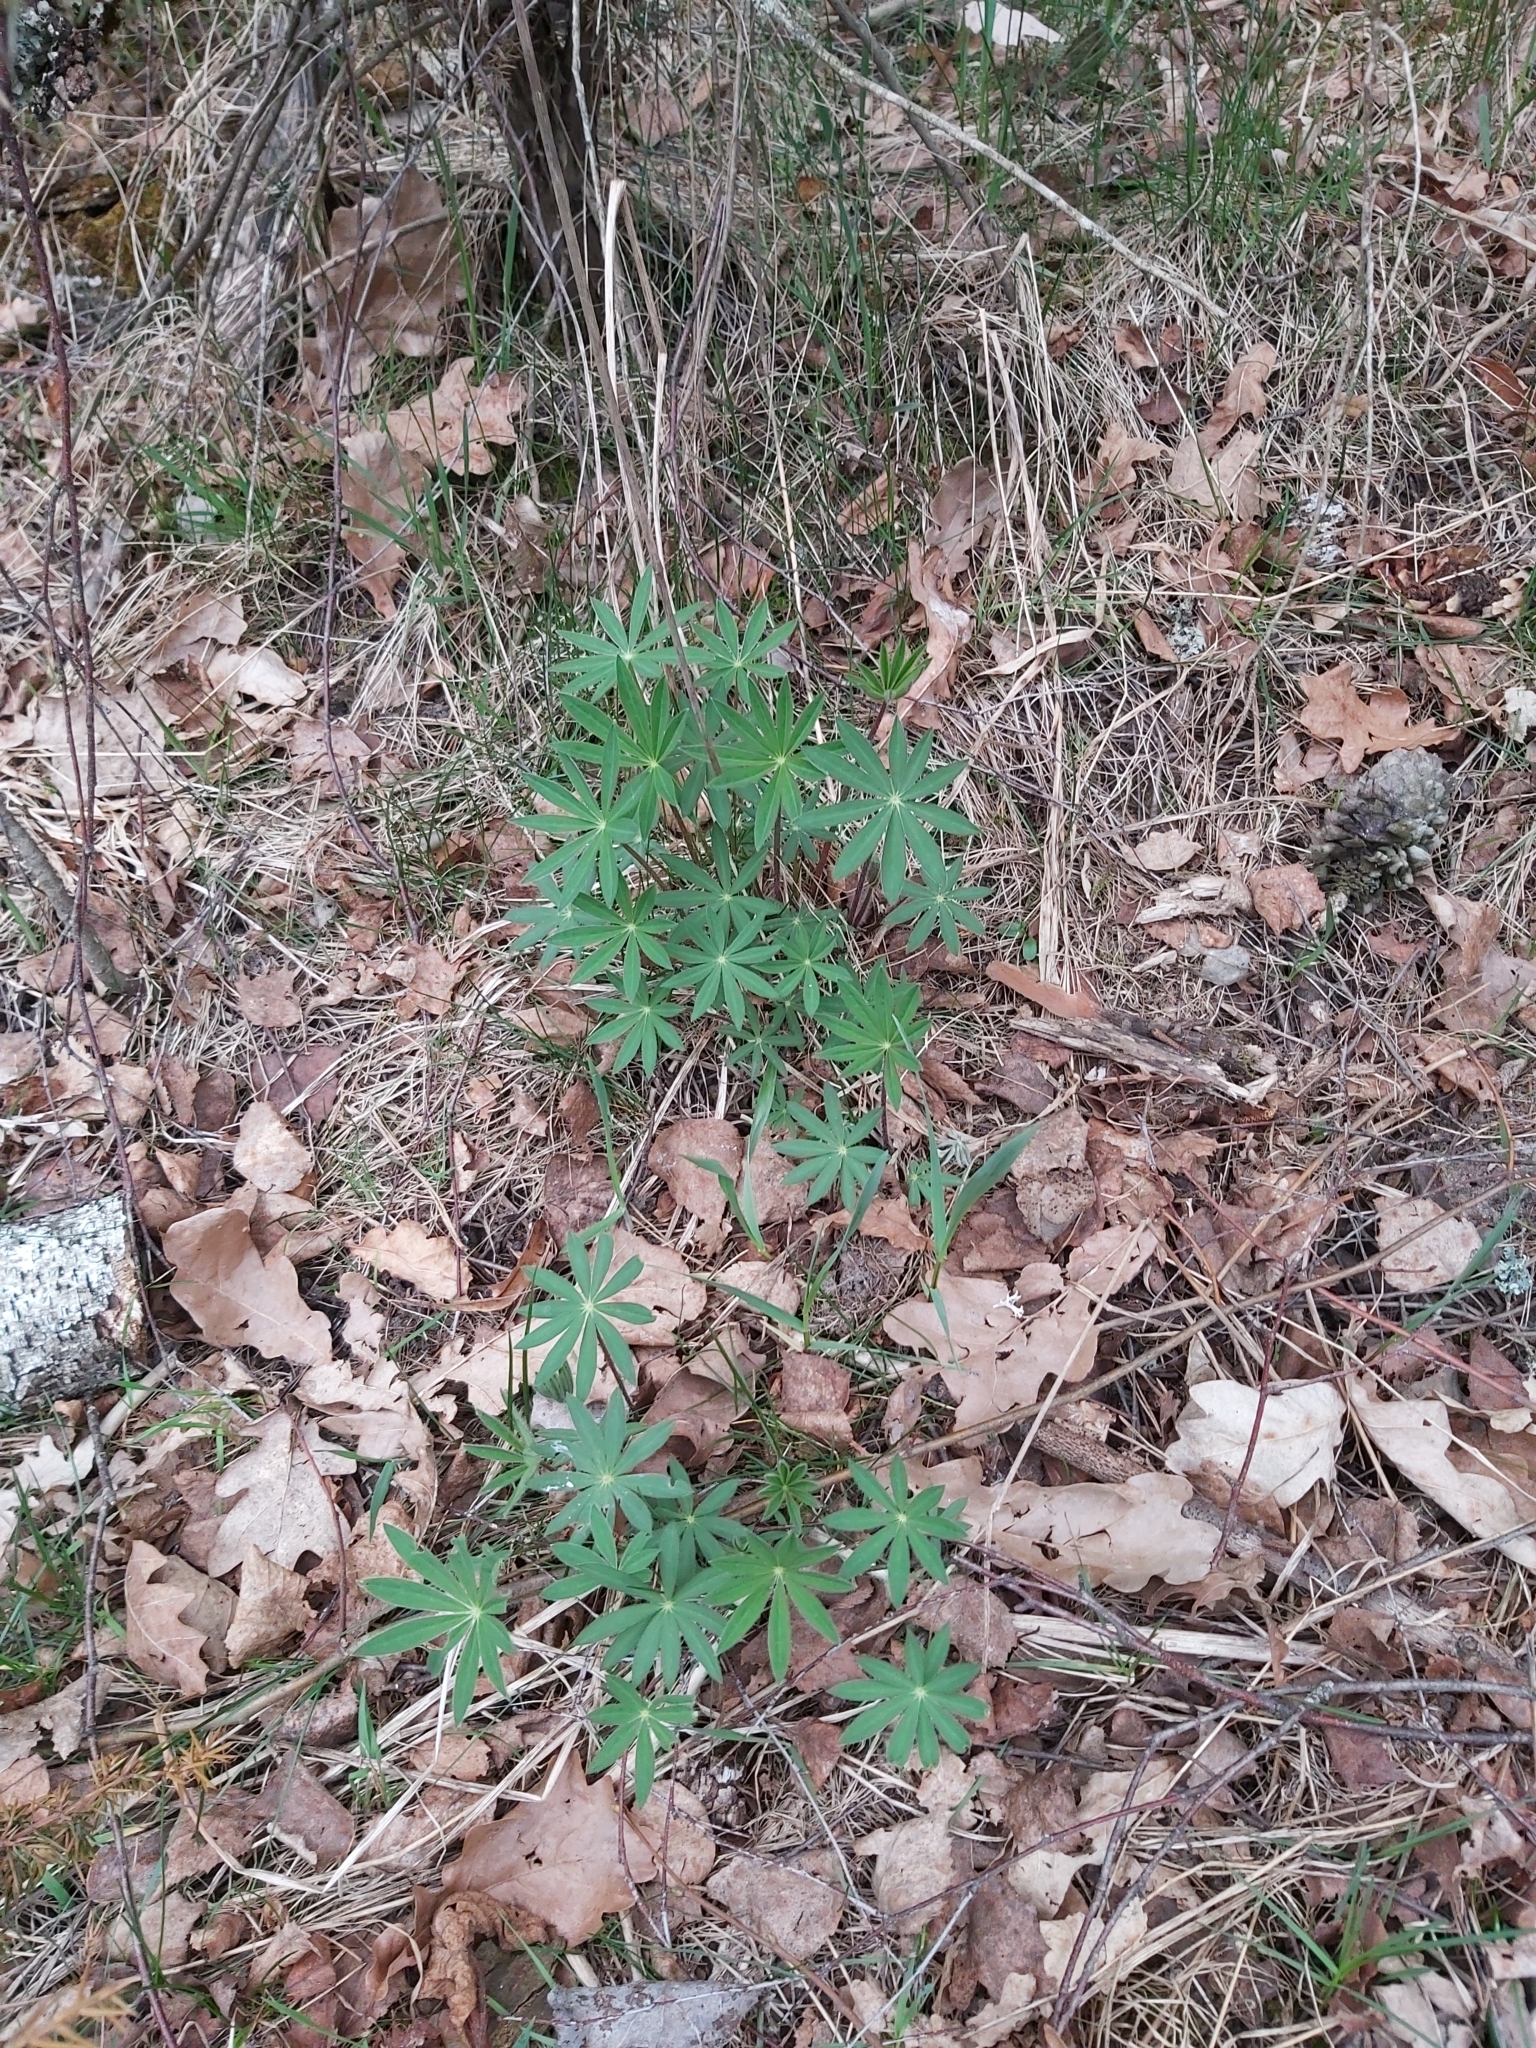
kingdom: Plantae
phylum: Tracheophyta
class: Magnoliopsida
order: Fabales
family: Fabaceae
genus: Lupinus
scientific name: Lupinus polyphyllus
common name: Garden lupin
